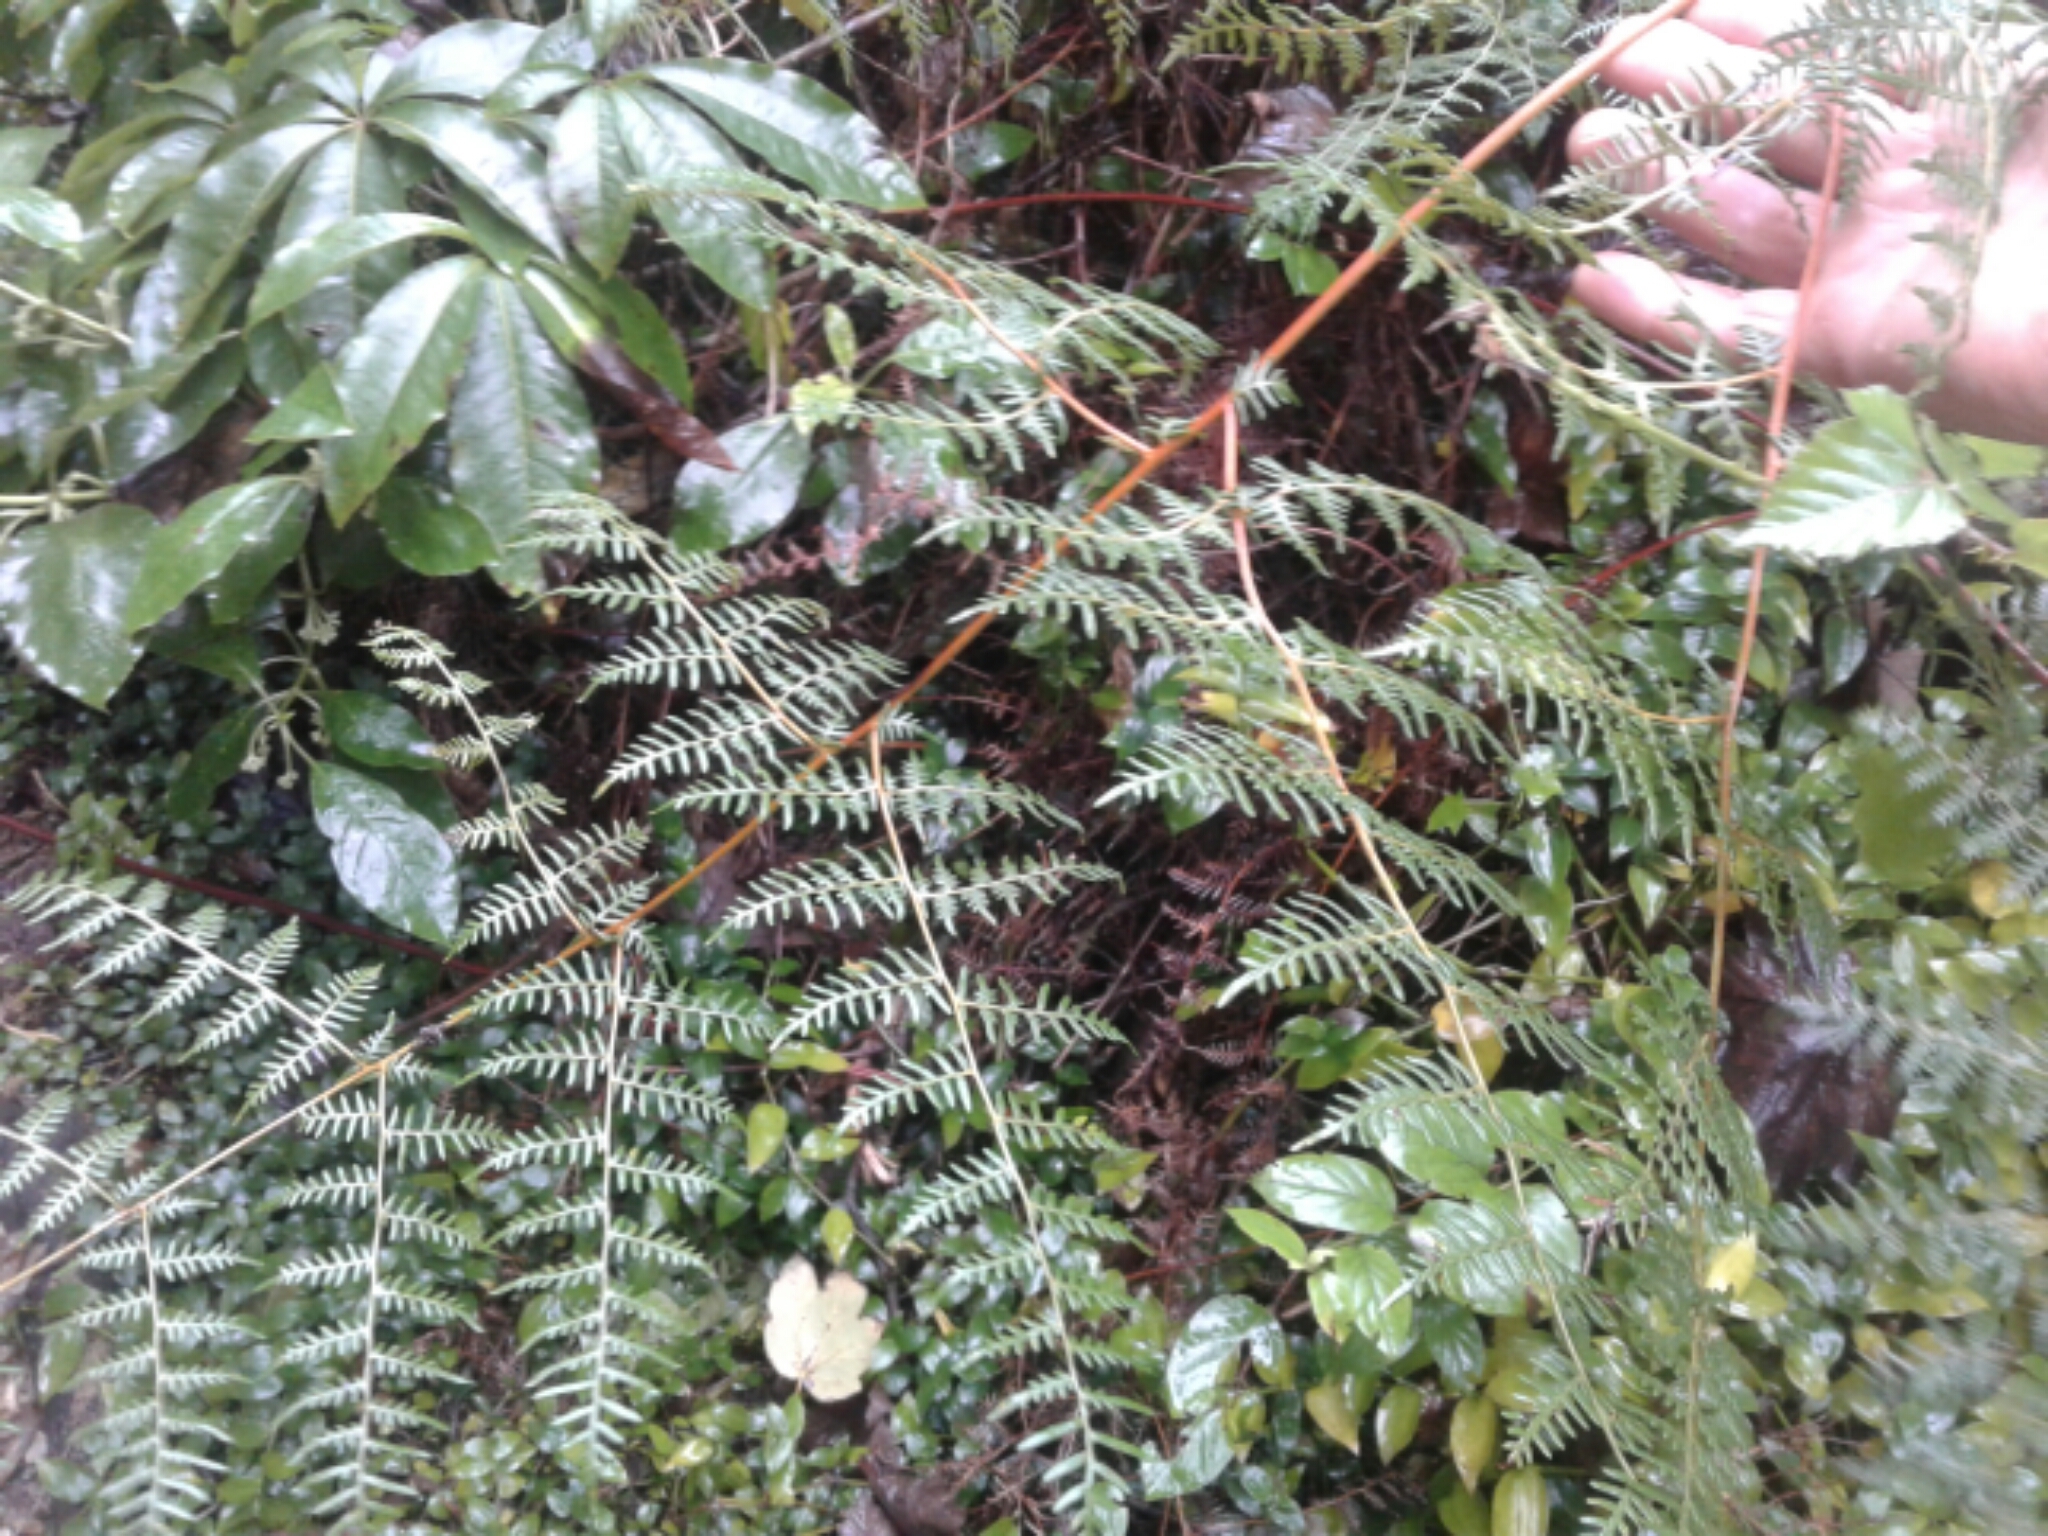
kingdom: Plantae
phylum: Tracheophyta
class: Polypodiopsida
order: Polypodiales
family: Dennstaedtiaceae
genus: Pteridium
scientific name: Pteridium esculentum
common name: Bracken fern
